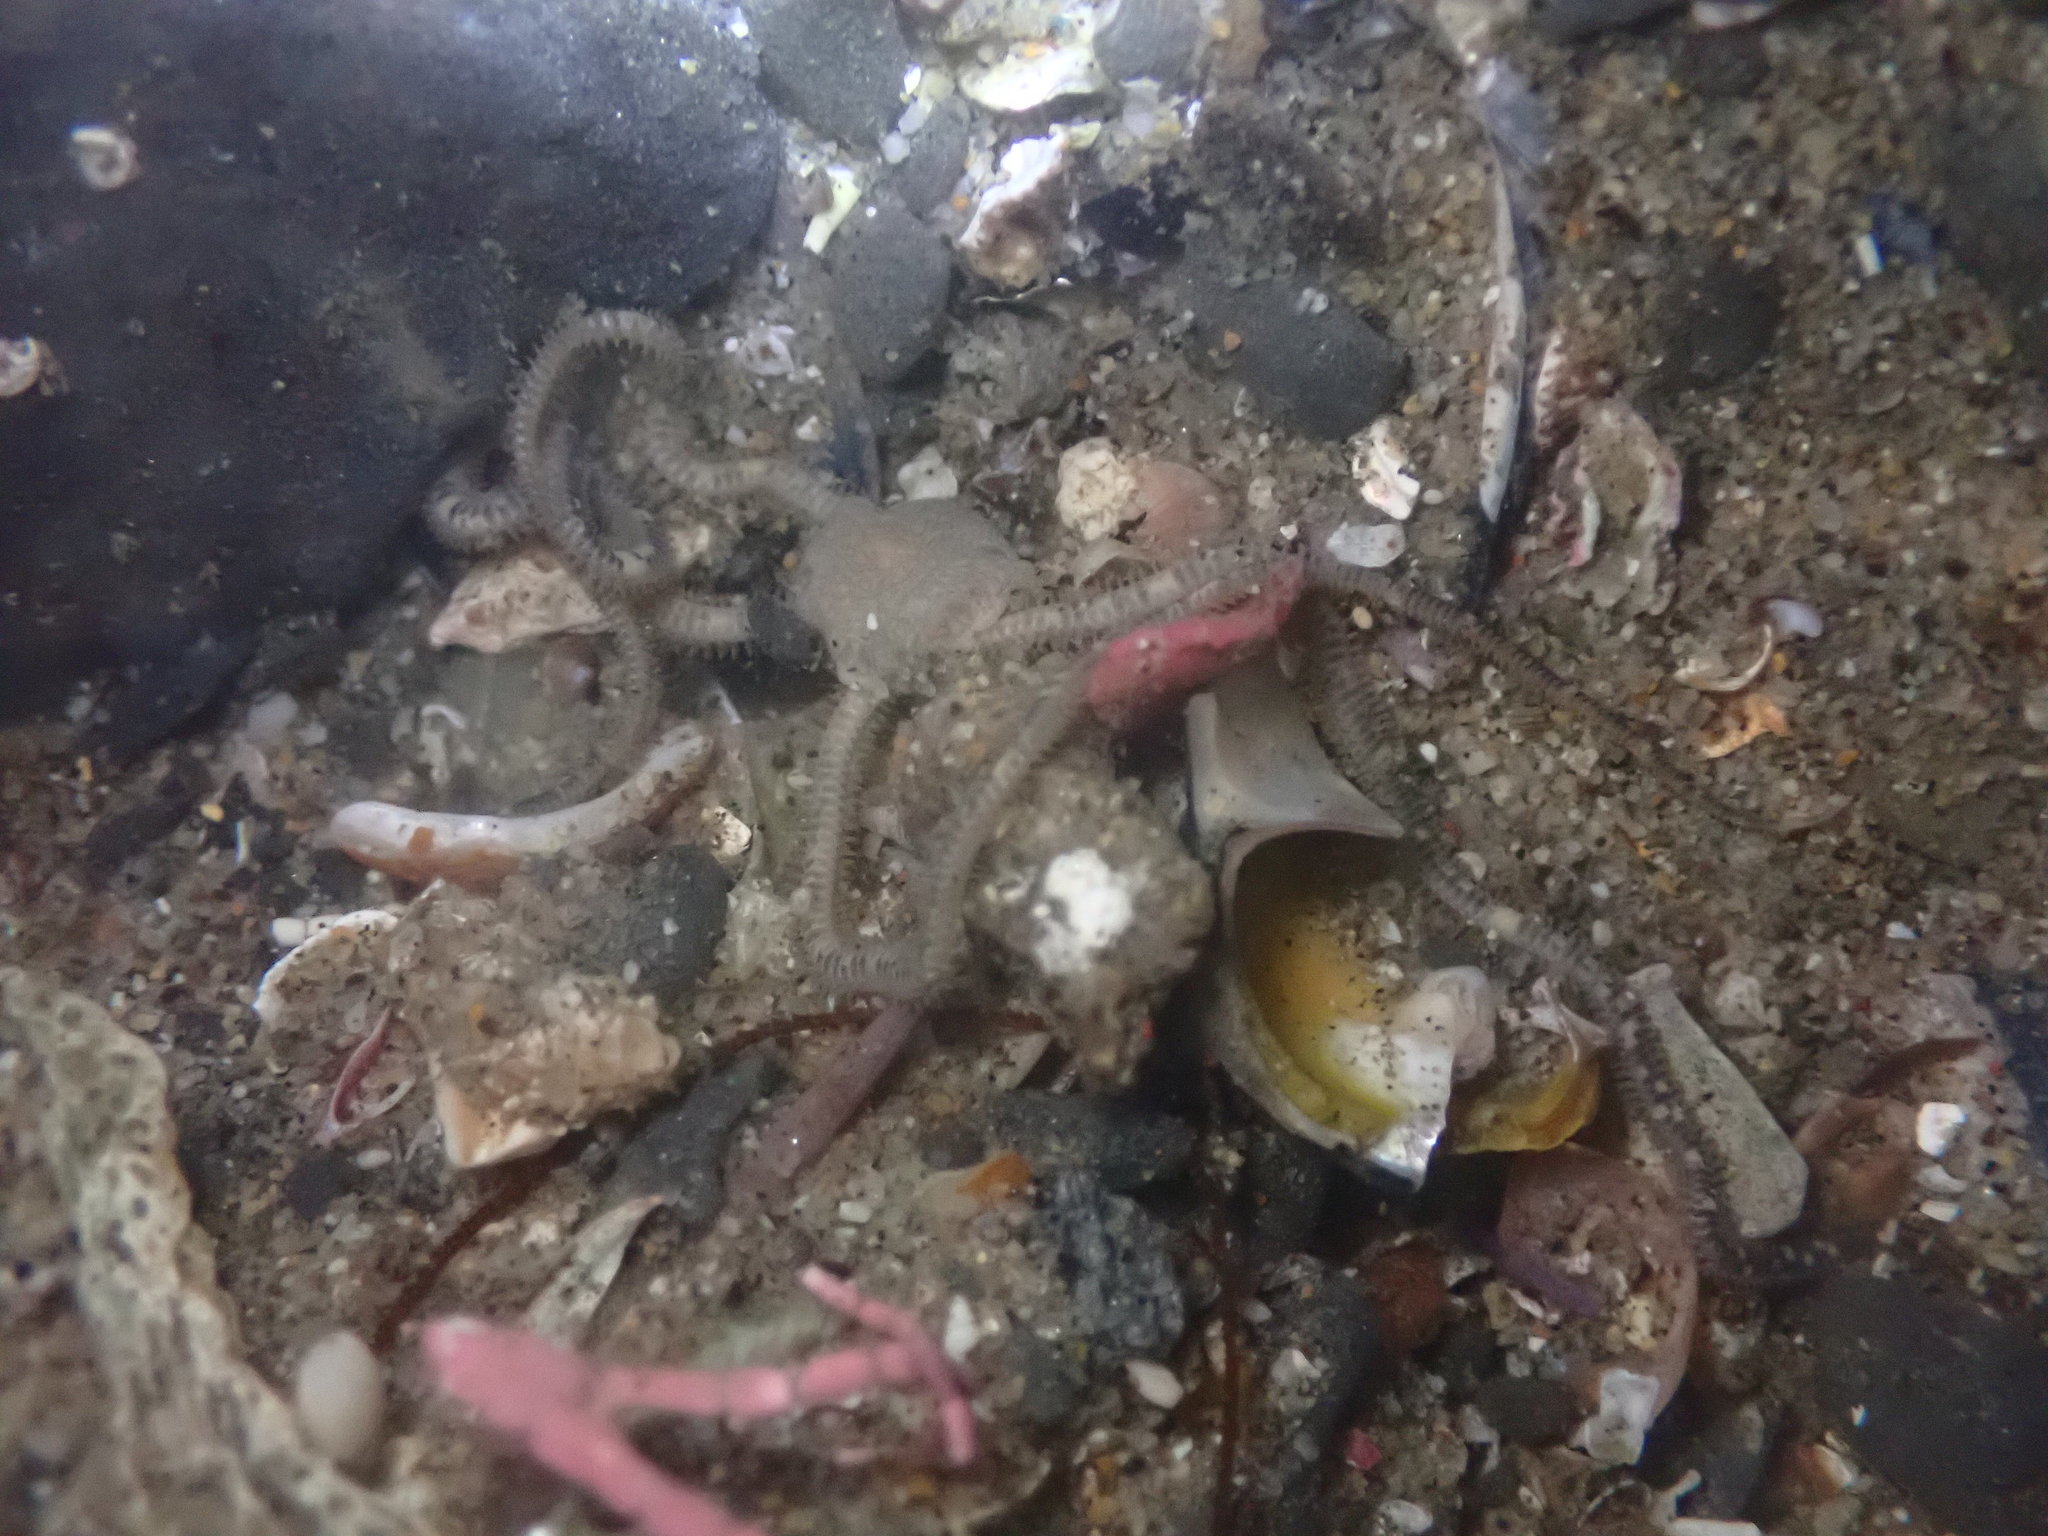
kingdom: Animalia
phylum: Echinodermata
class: Ophiuroidea
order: Amphilepidida
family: Amphiuridae
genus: Amphiodia
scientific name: Amphiodia occidentalis
